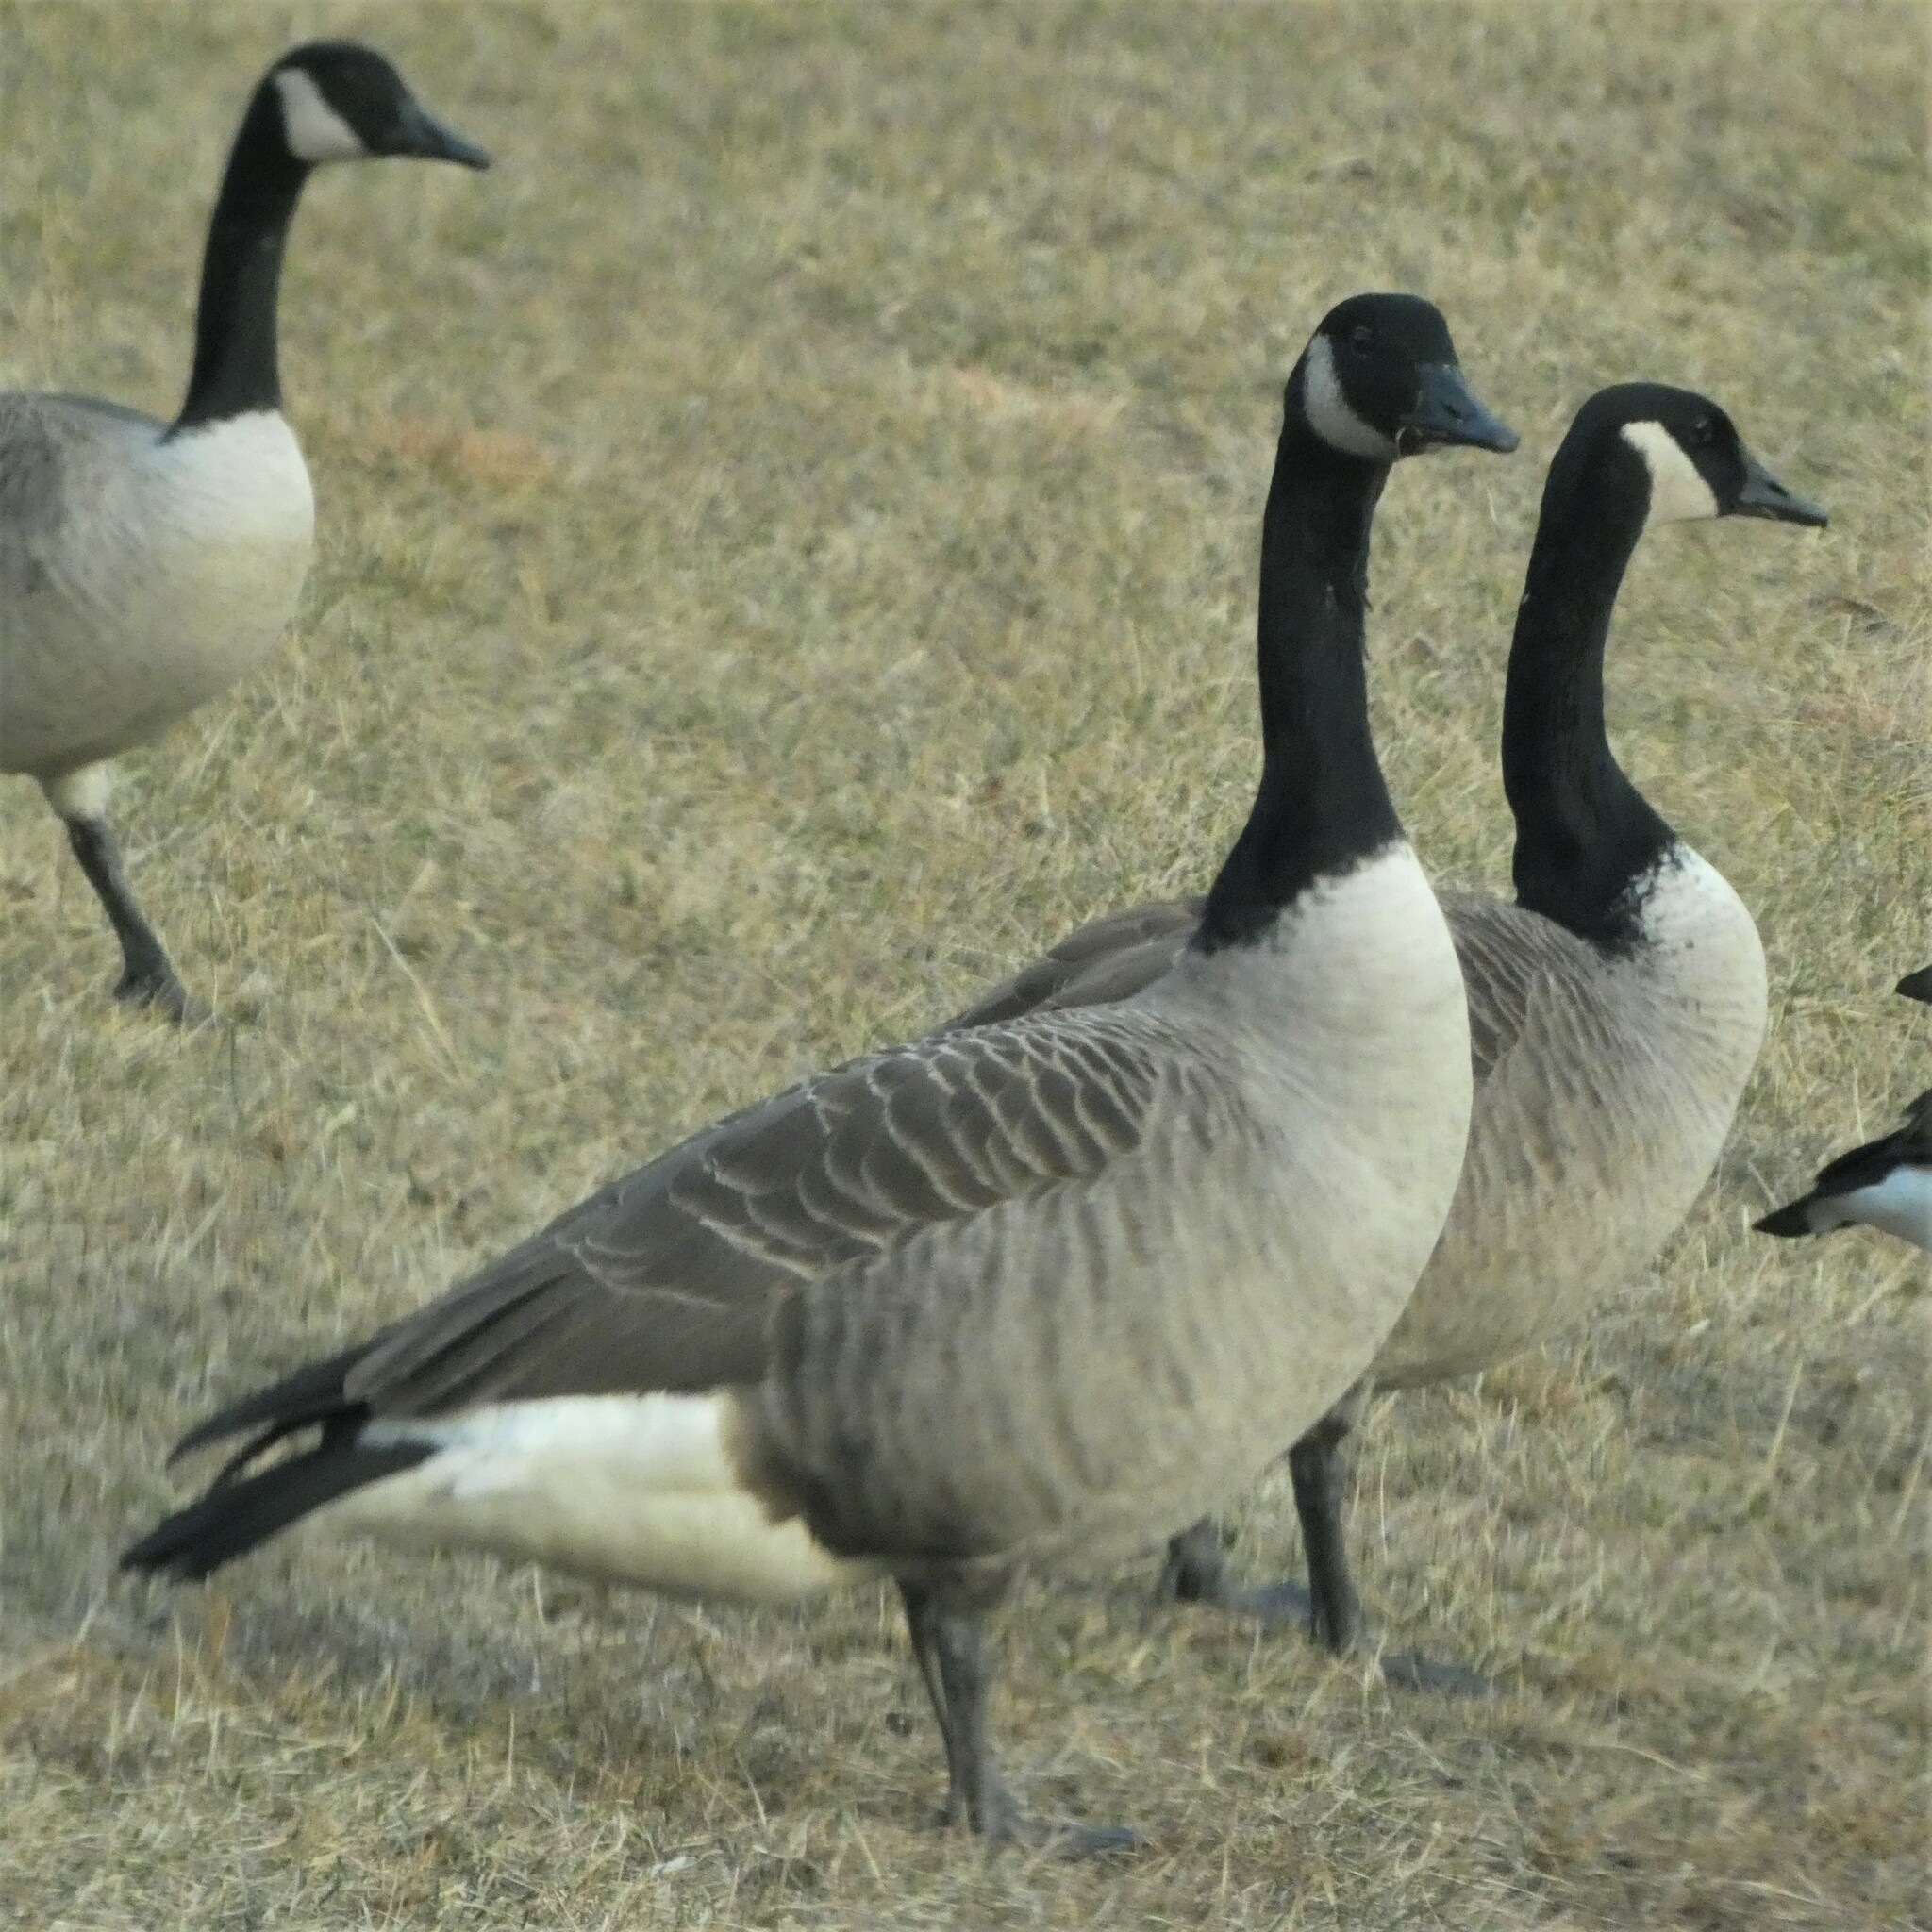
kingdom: Animalia
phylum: Chordata
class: Aves
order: Anseriformes
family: Anatidae
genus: Branta
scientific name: Branta canadensis
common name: Canada goose
